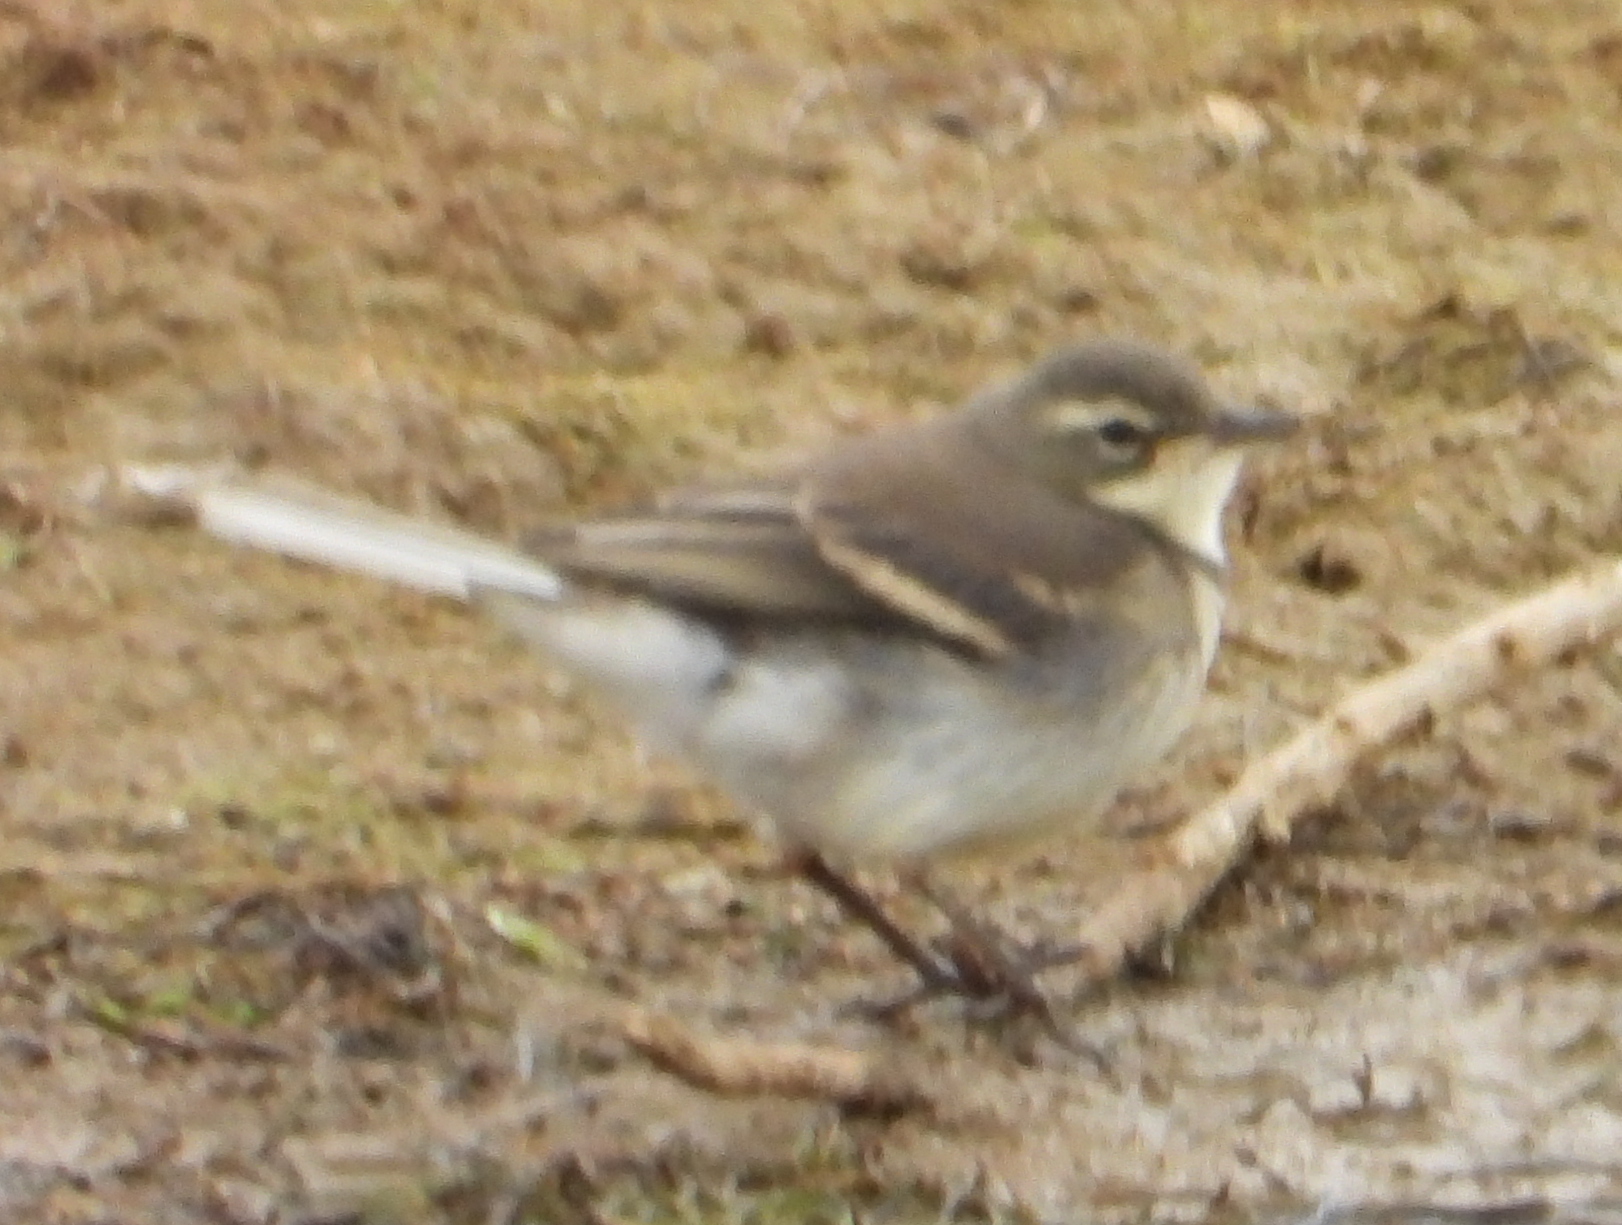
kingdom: Animalia
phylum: Chordata
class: Aves
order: Passeriformes
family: Motacillidae
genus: Motacilla
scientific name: Motacilla capensis
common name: Cape wagtail
